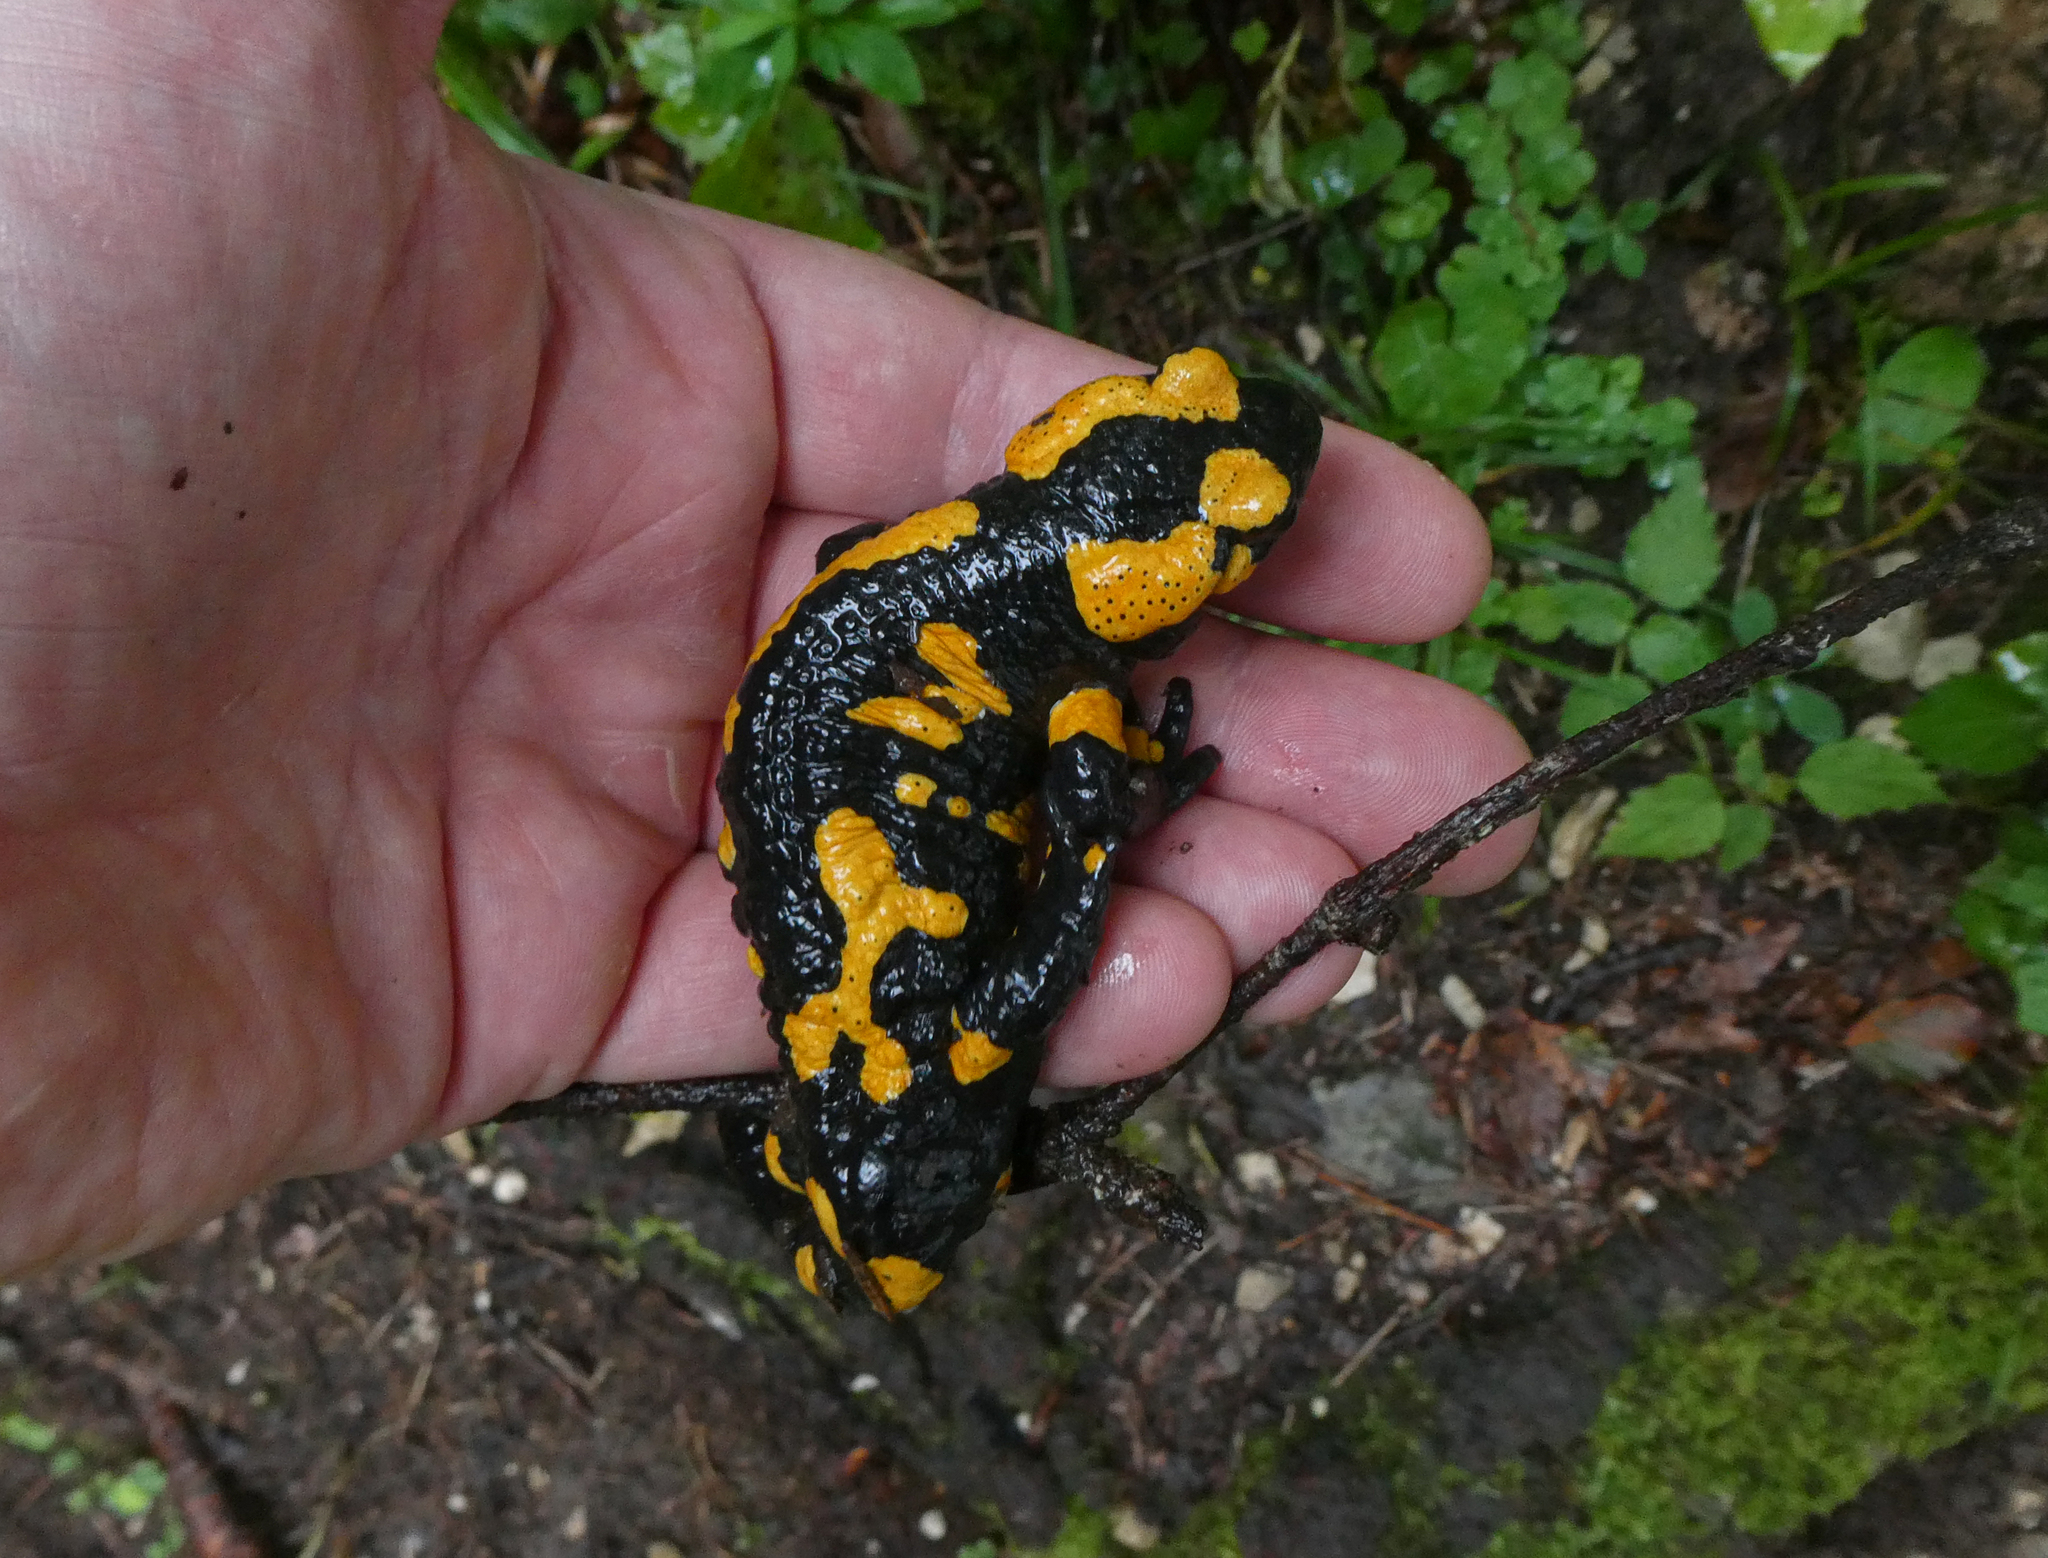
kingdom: Animalia
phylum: Chordata
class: Amphibia
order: Caudata
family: Salamandridae
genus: Salamandra
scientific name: Salamandra salamandra
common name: Fire salamander
